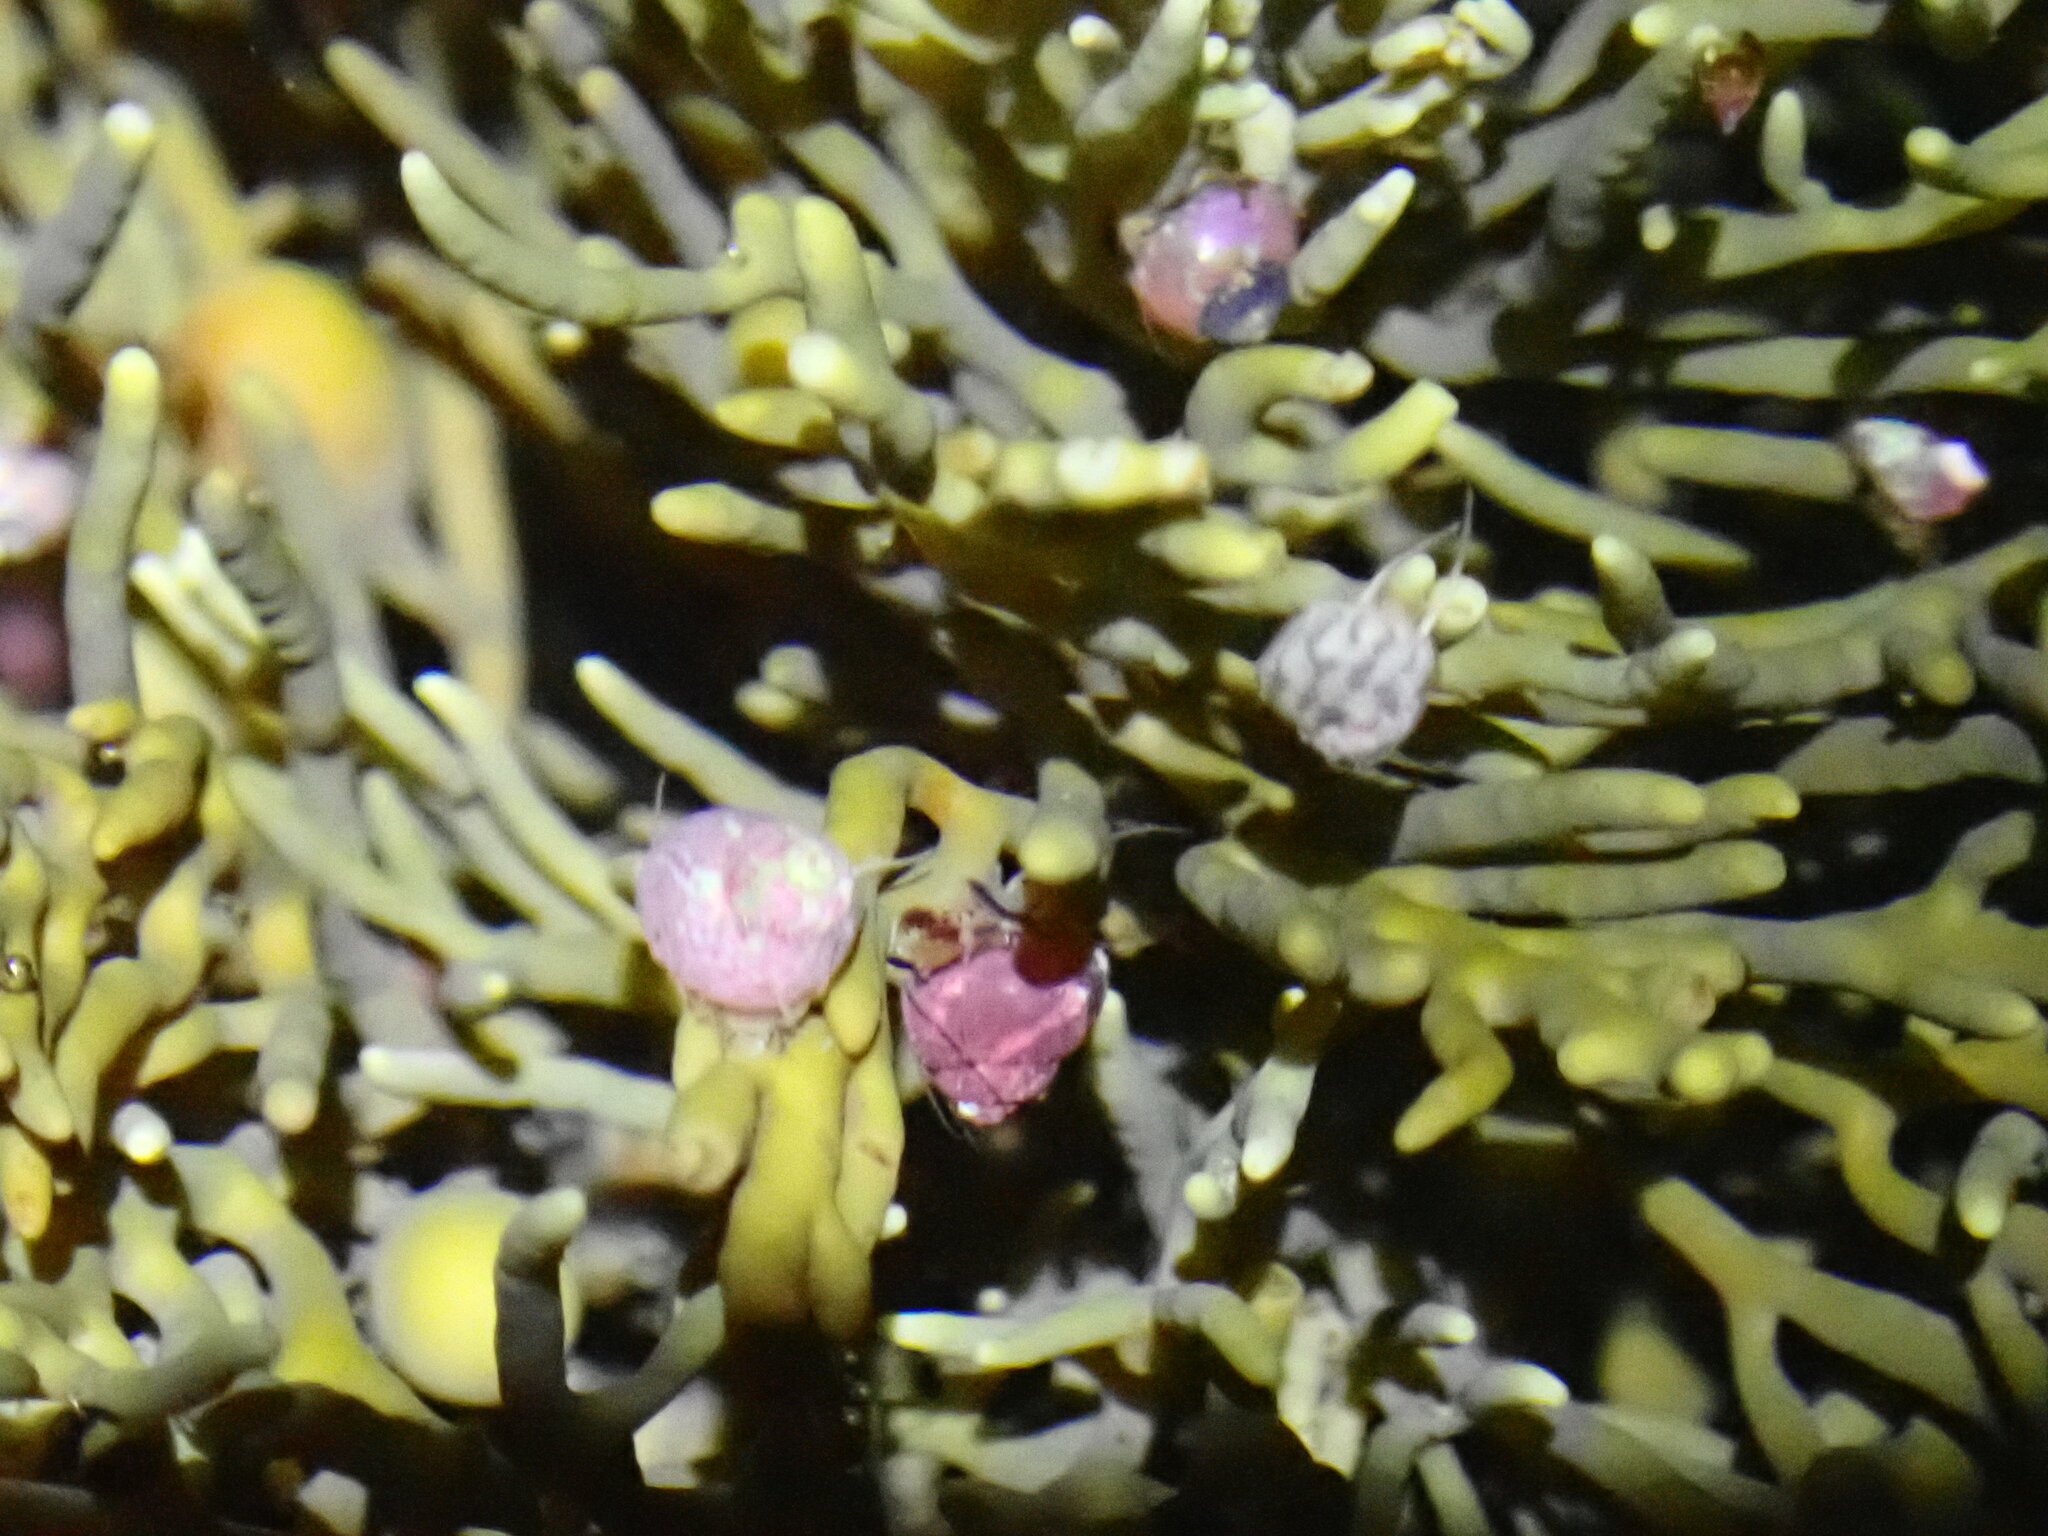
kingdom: Animalia
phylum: Mollusca
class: Gastropoda
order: Trochida
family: Trochidae
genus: Micrelenchus
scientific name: Micrelenchus tessellatus
